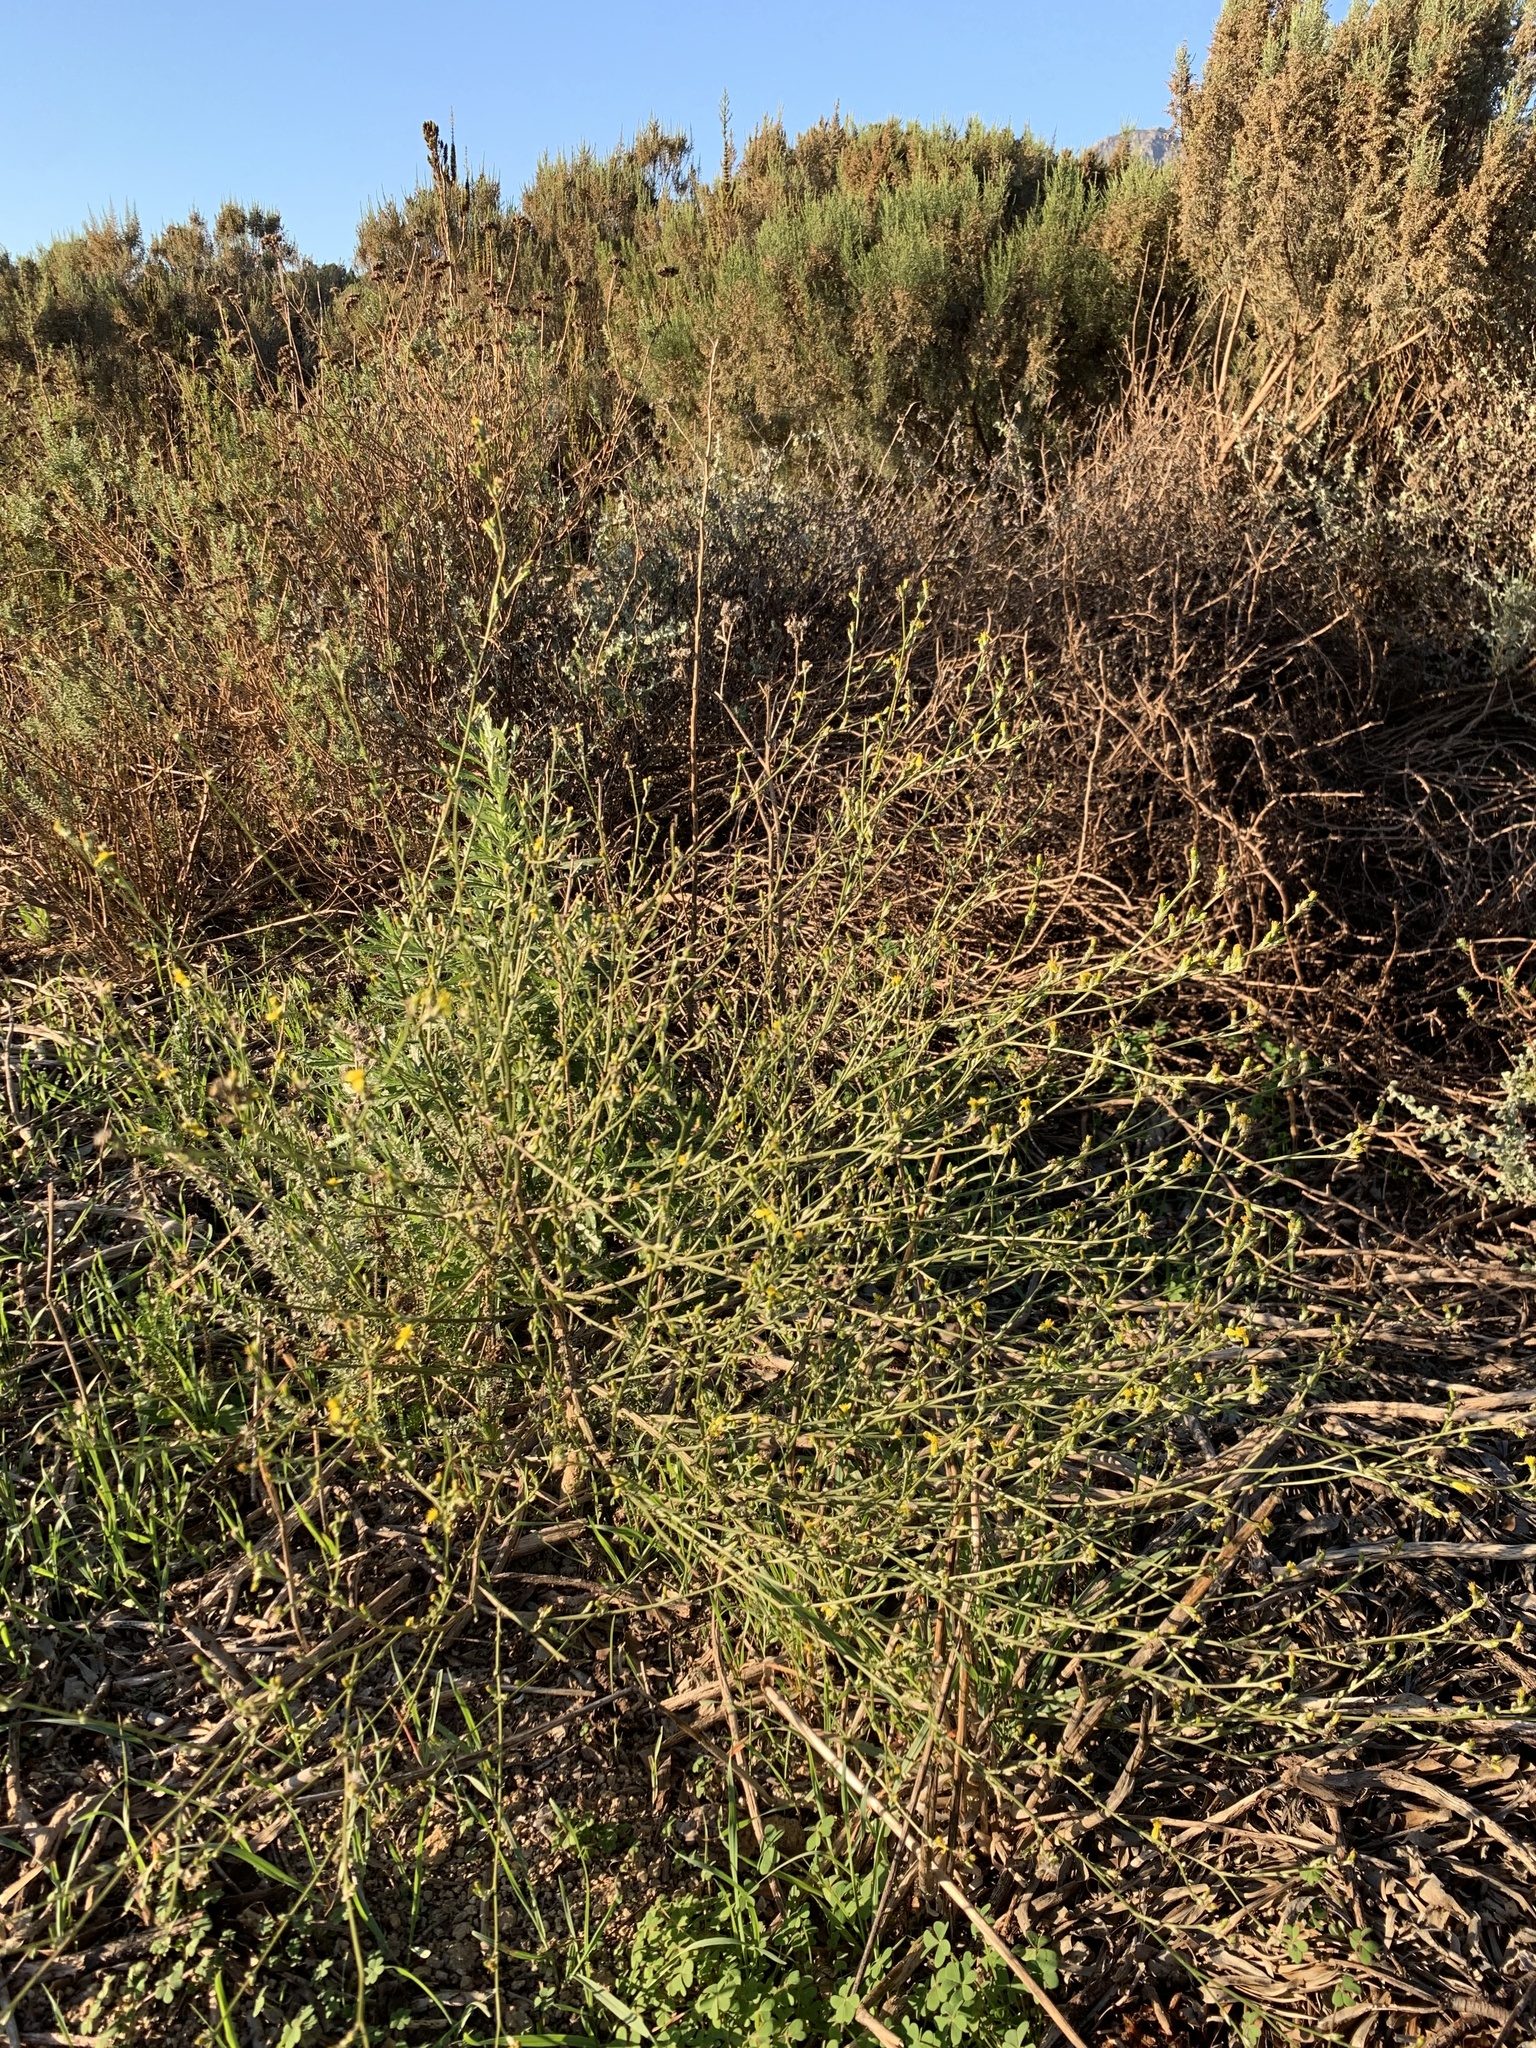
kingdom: Plantae
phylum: Tracheophyta
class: Magnoliopsida
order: Asterales
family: Asteraceae
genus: Senecio
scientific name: Senecio pubigerus
